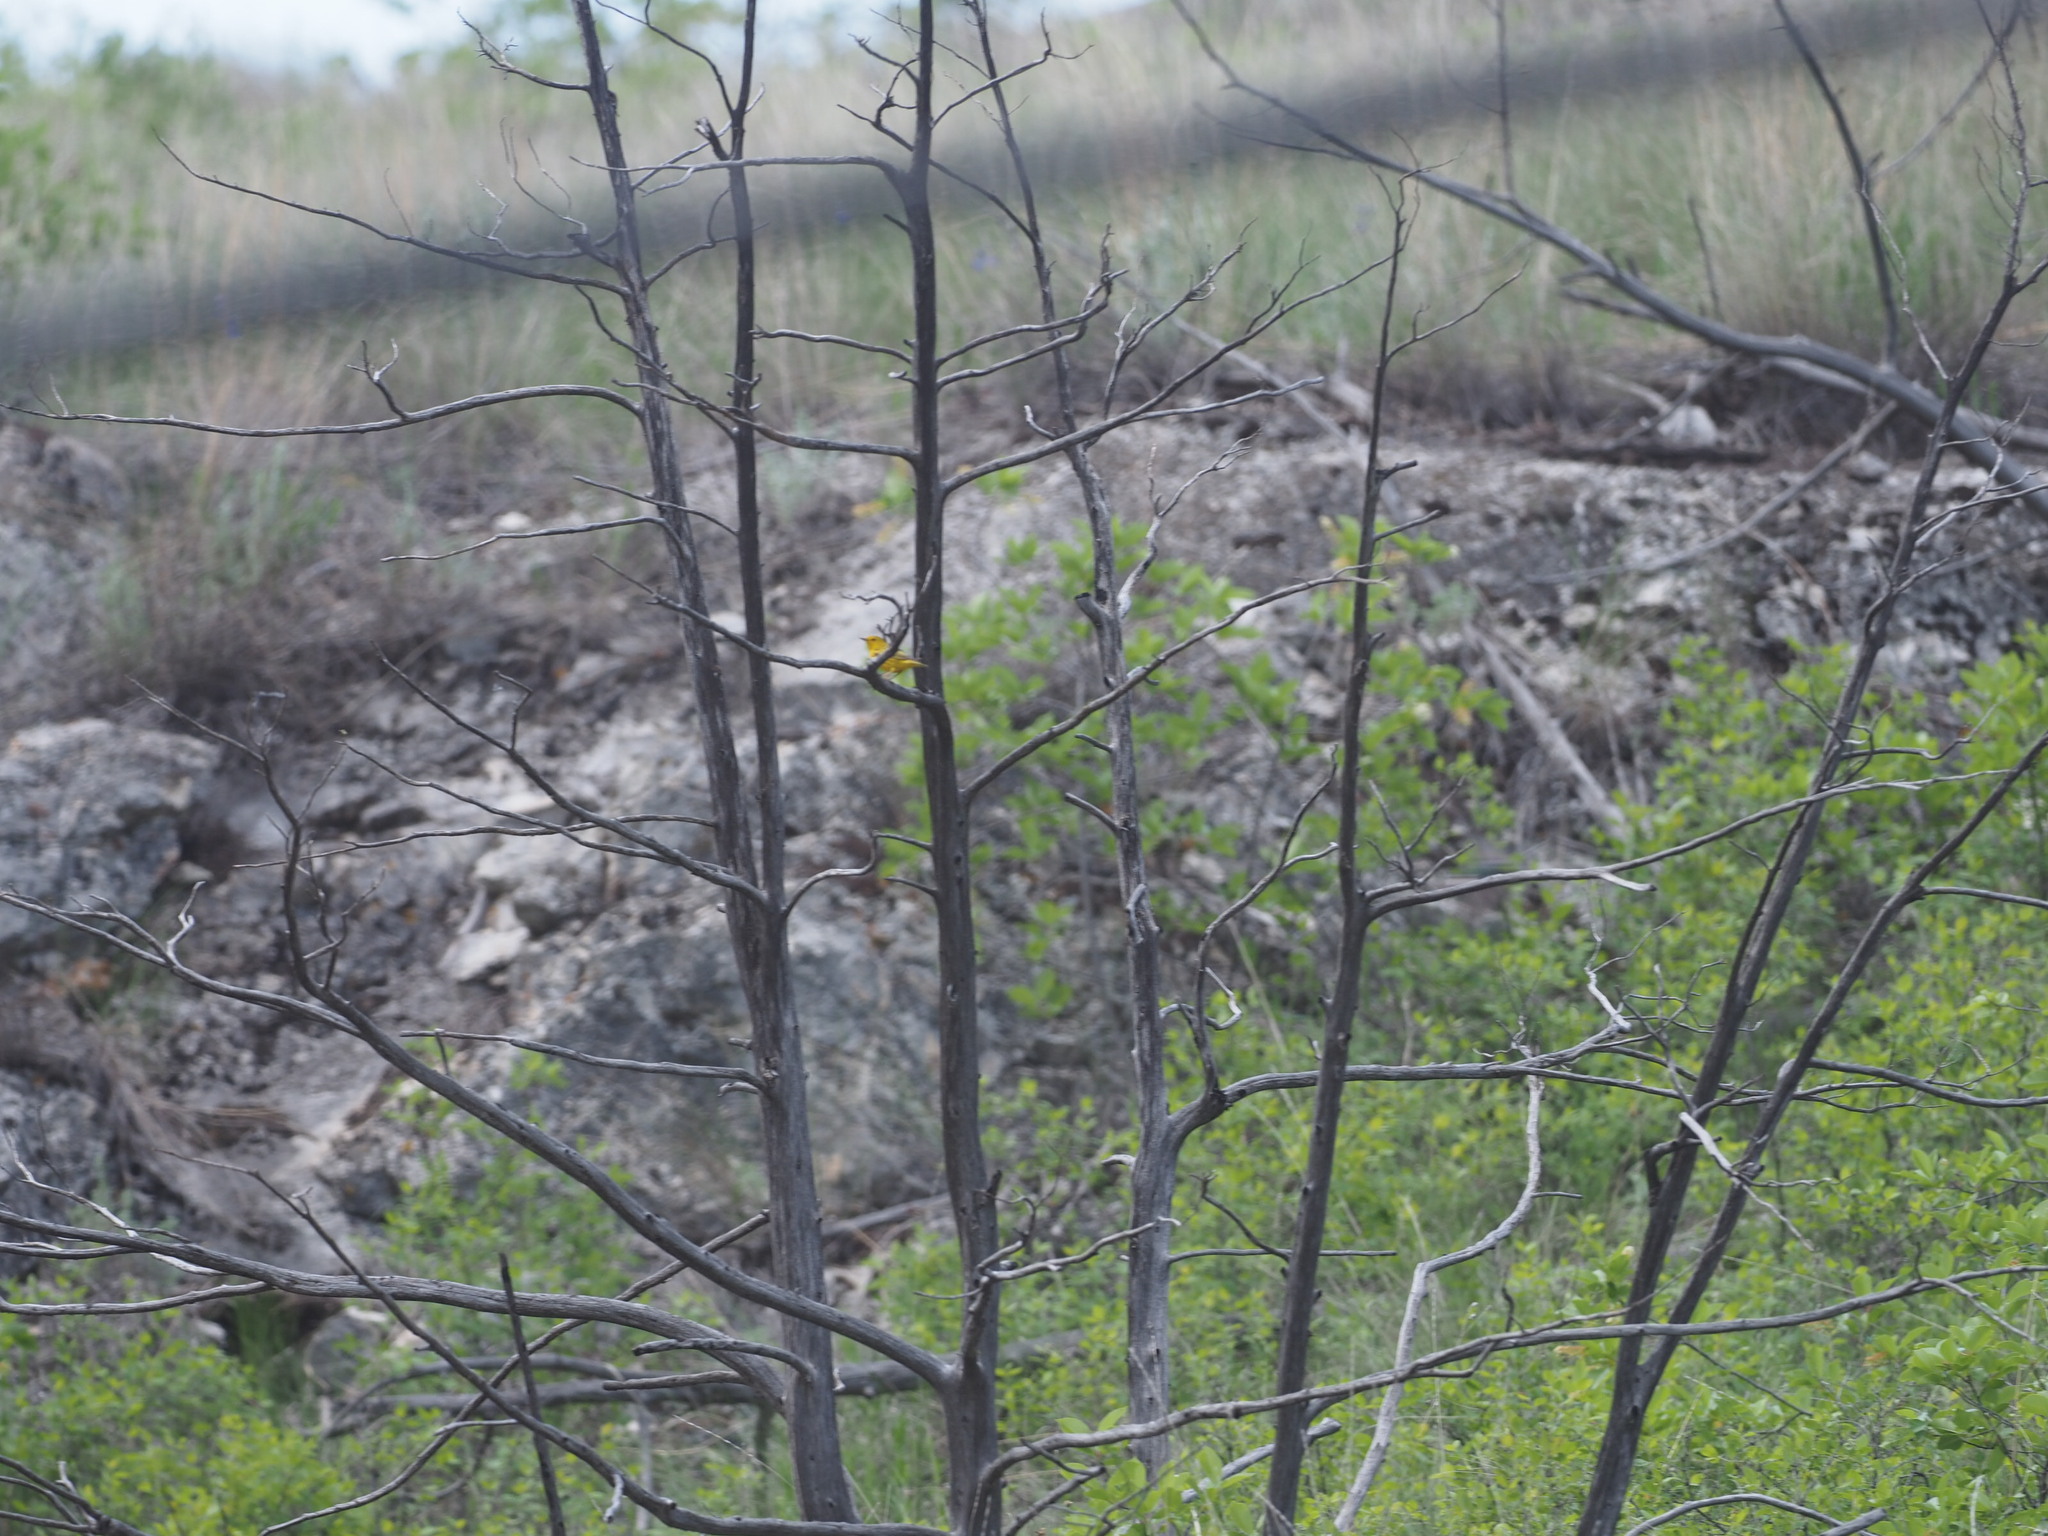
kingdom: Animalia
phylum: Chordata
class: Aves
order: Passeriformes
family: Parulidae
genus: Setophaga
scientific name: Setophaga petechia
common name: Yellow warbler
